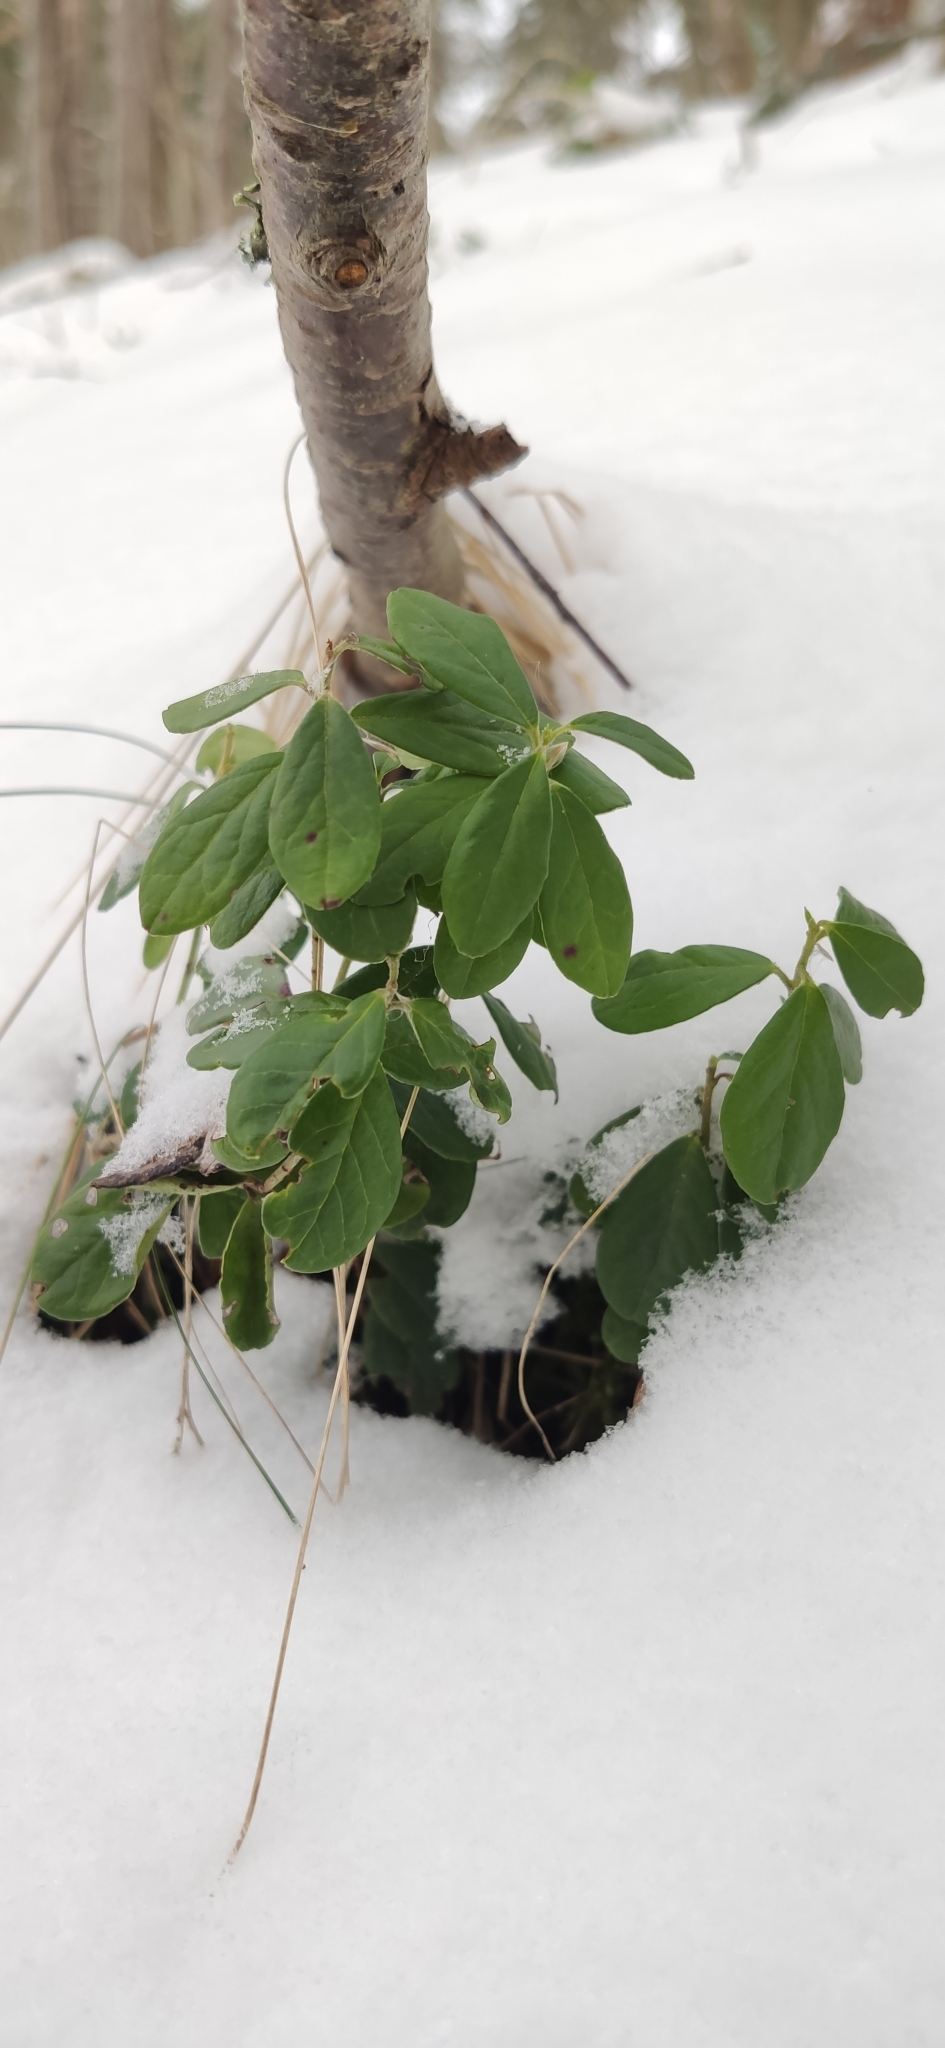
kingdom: Plantae
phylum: Tracheophyta
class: Magnoliopsida
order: Ericales
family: Ericaceae
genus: Vaccinium
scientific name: Vaccinium vitis-idaea
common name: Cowberry
